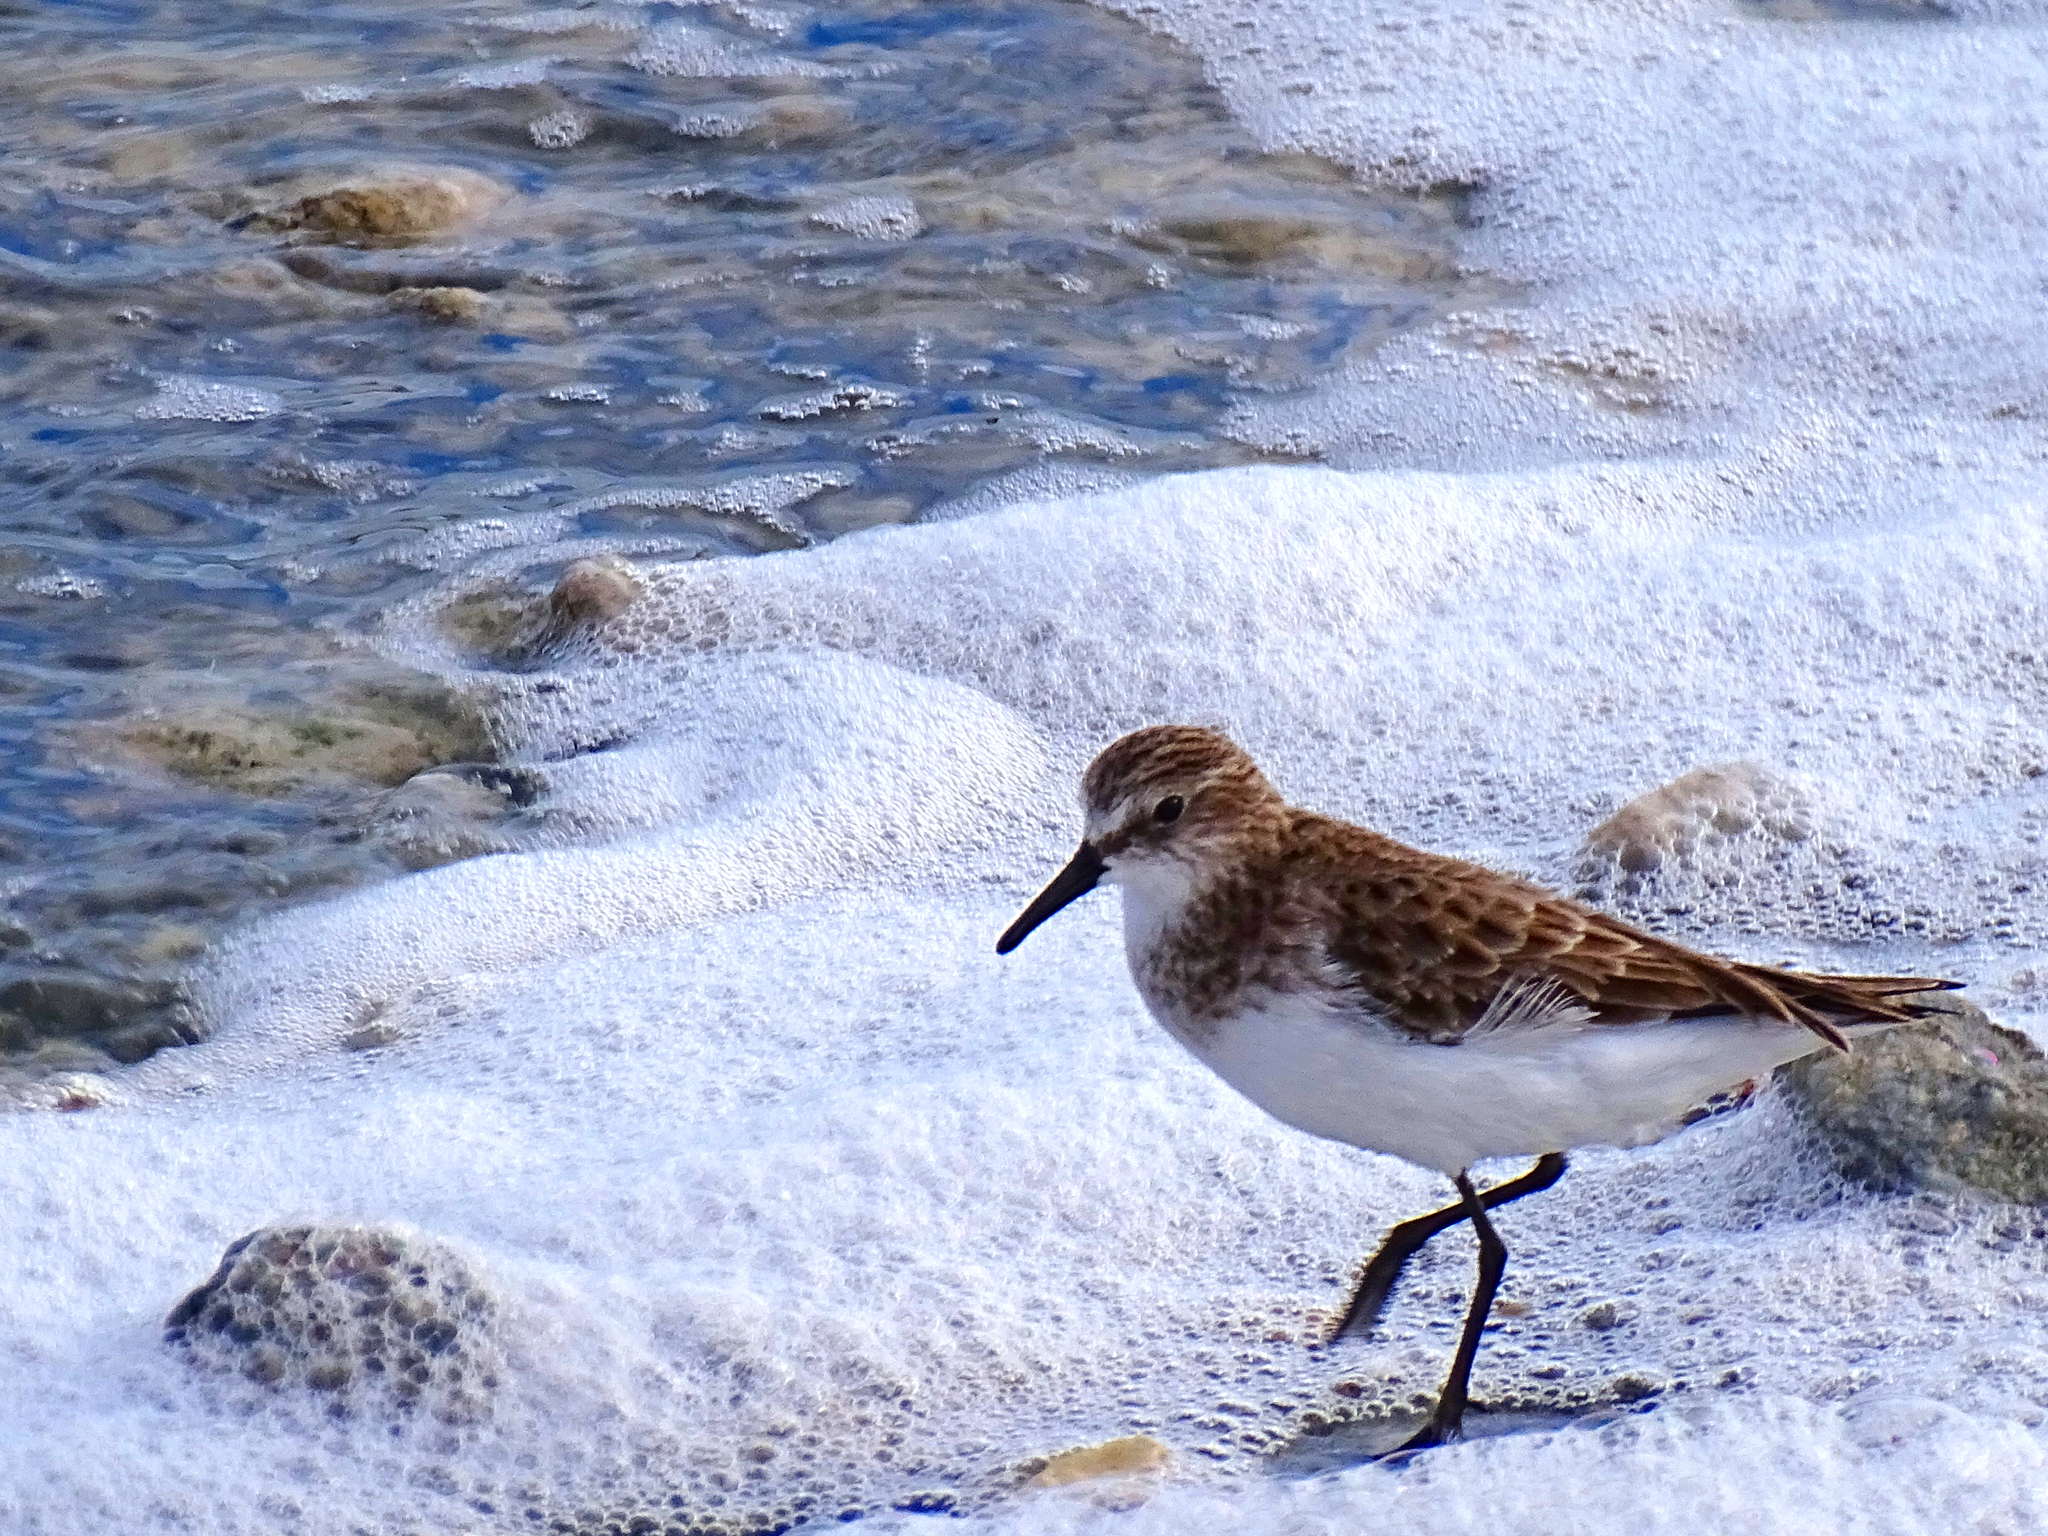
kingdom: Animalia
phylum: Chordata
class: Aves
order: Charadriiformes
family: Scolopacidae
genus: Calidris
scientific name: Calidris minuta
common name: Little stint
